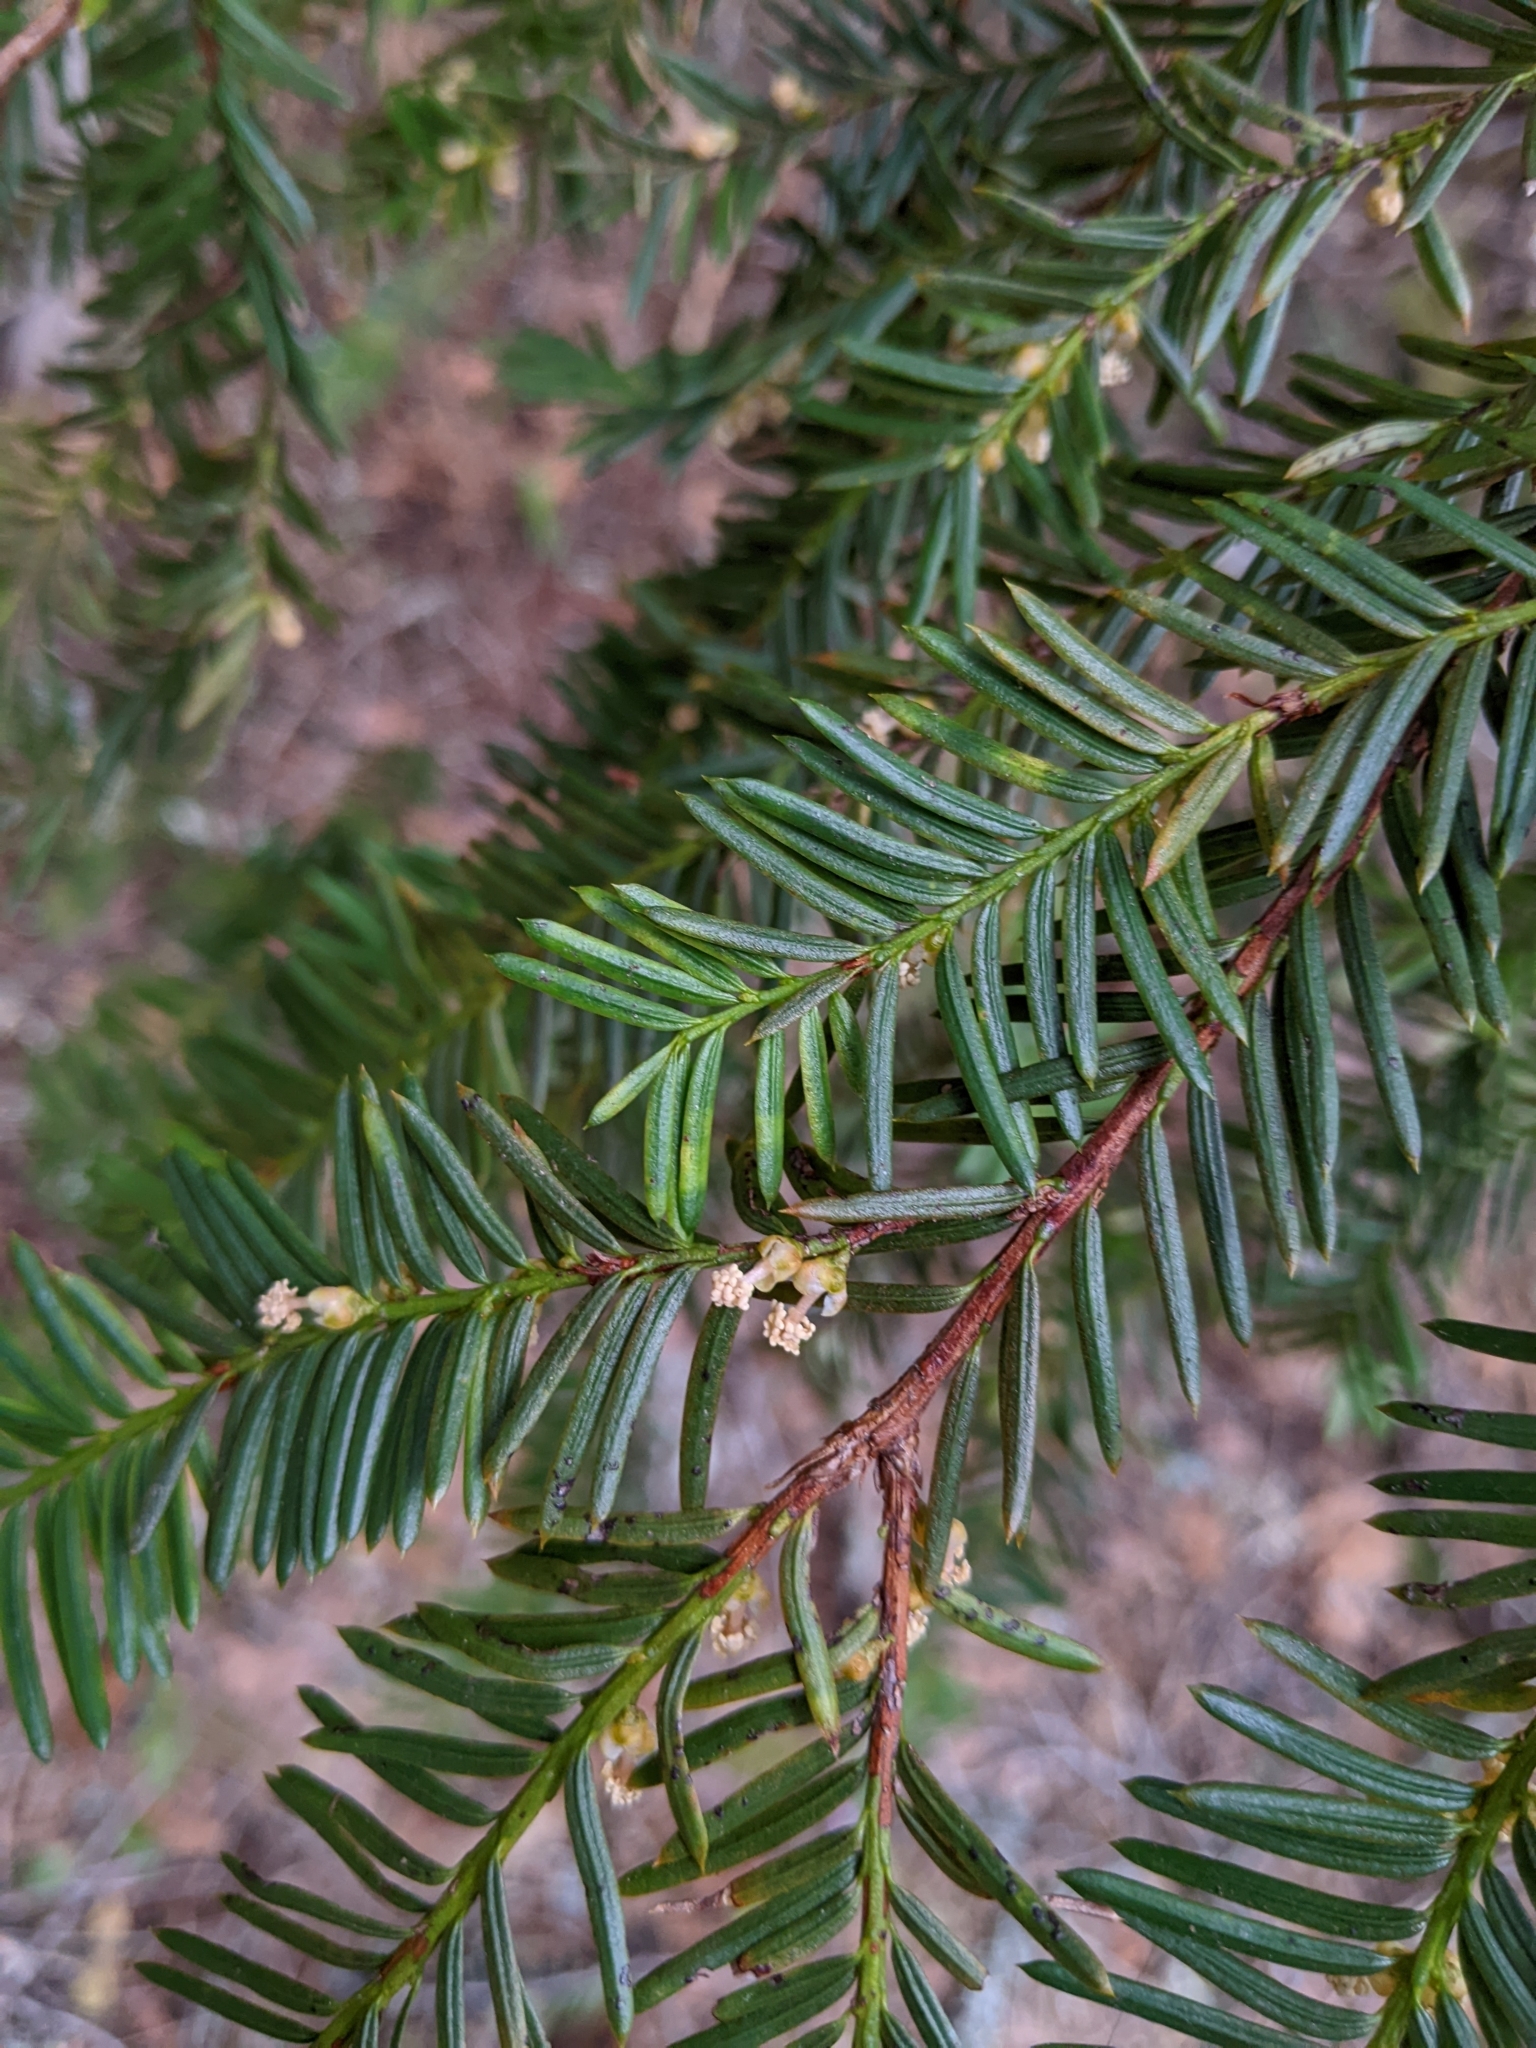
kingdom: Plantae
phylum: Tracheophyta
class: Pinopsida
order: Pinales
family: Taxaceae
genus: Taxus
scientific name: Taxus brevifolia
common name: Pacific yew
